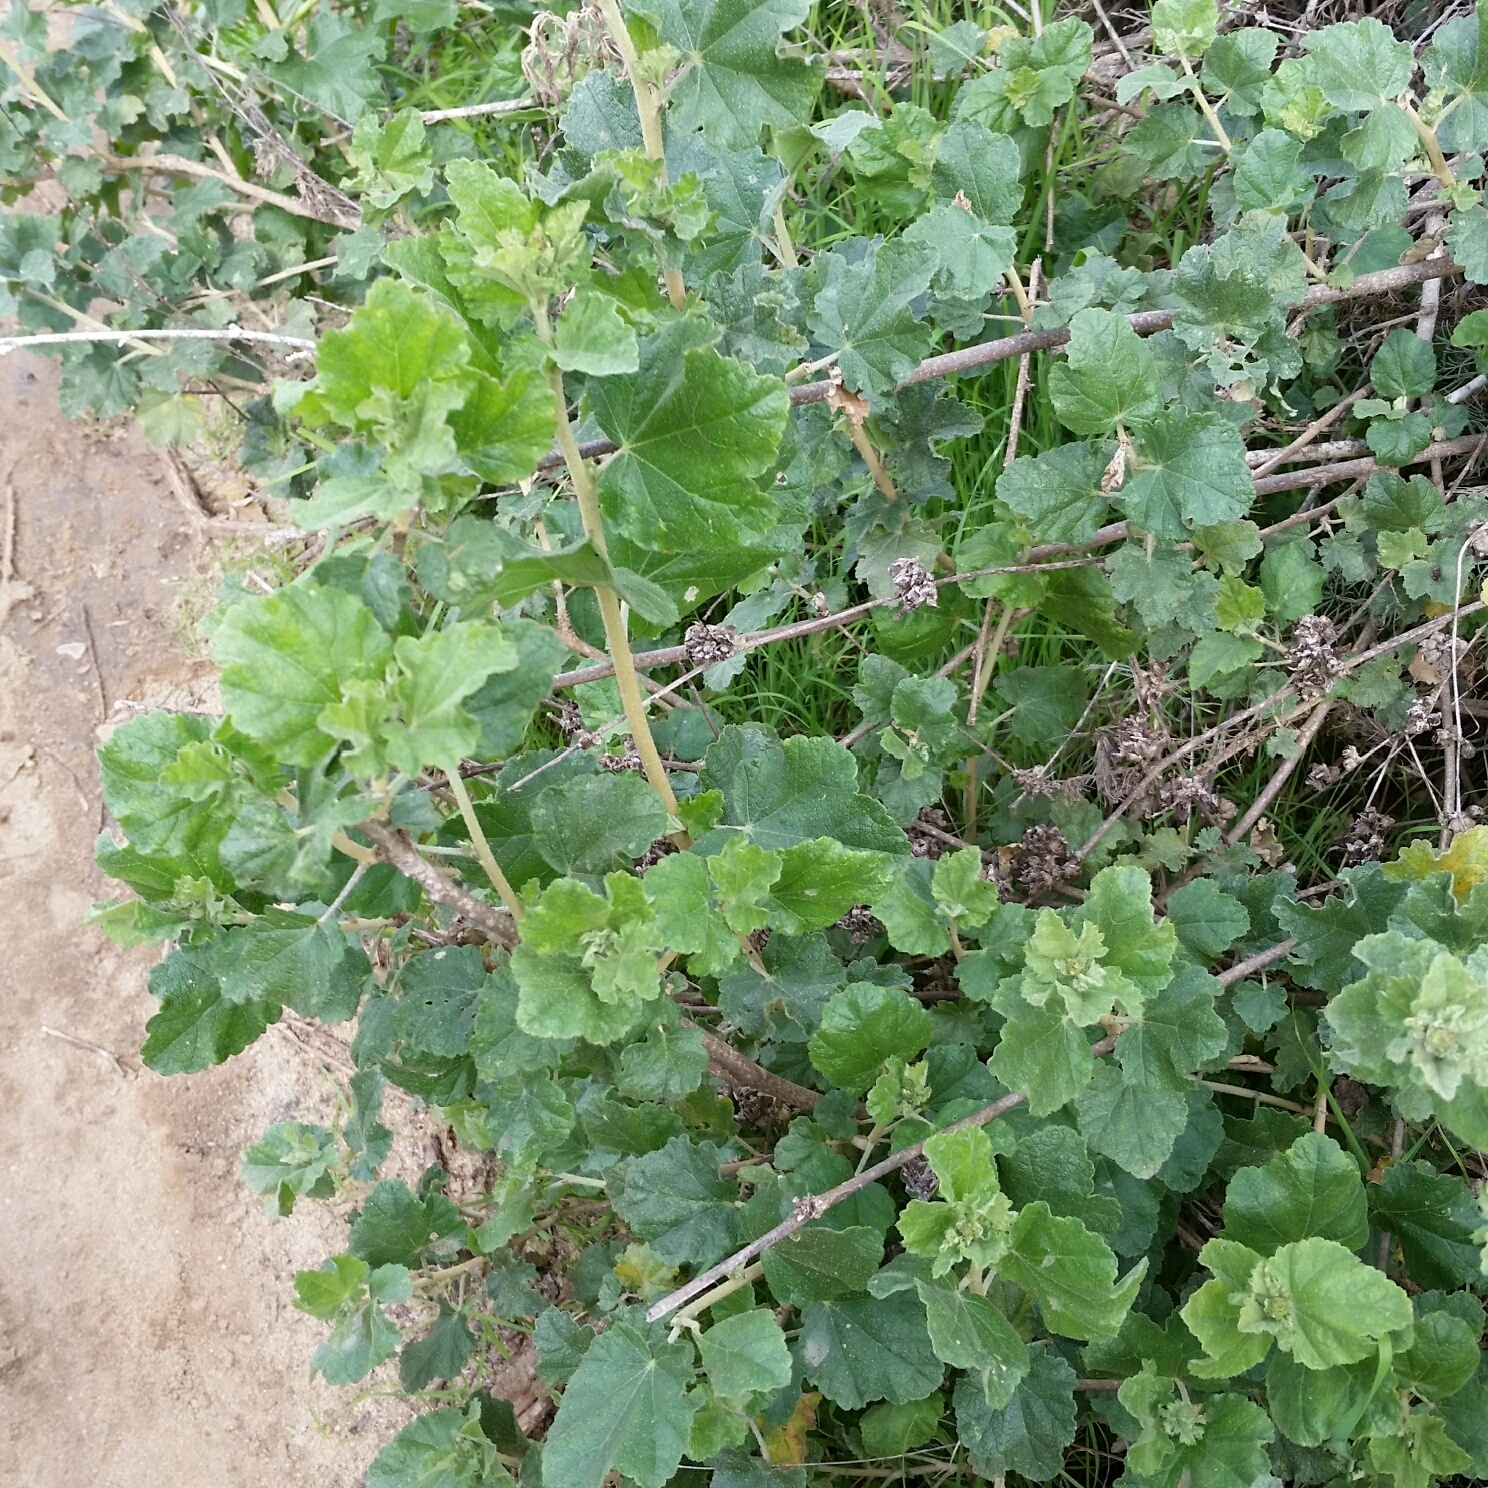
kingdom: Plantae
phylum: Tracheophyta
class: Magnoliopsida
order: Malvales
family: Malvaceae
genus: Malacothamnus
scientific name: Malacothamnus fasciculatus
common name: Sant cruz island bush-mallow
